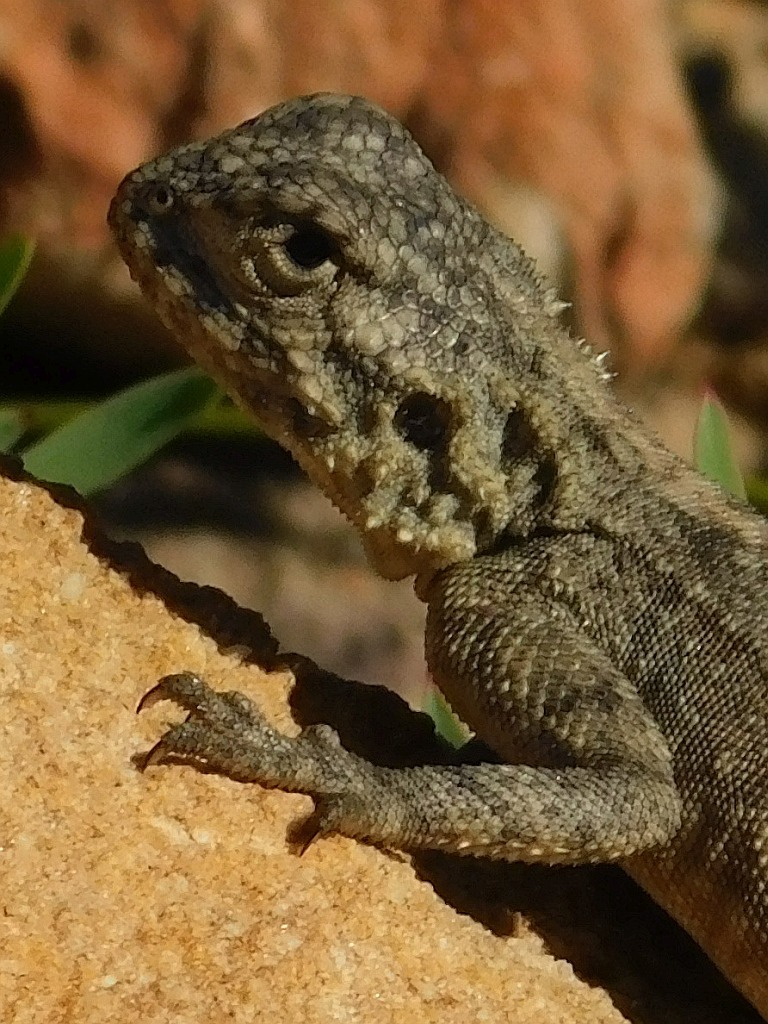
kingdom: Animalia
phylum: Chordata
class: Squamata
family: Agamidae
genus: Agama
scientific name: Agama atra
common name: Southern african rock agama
